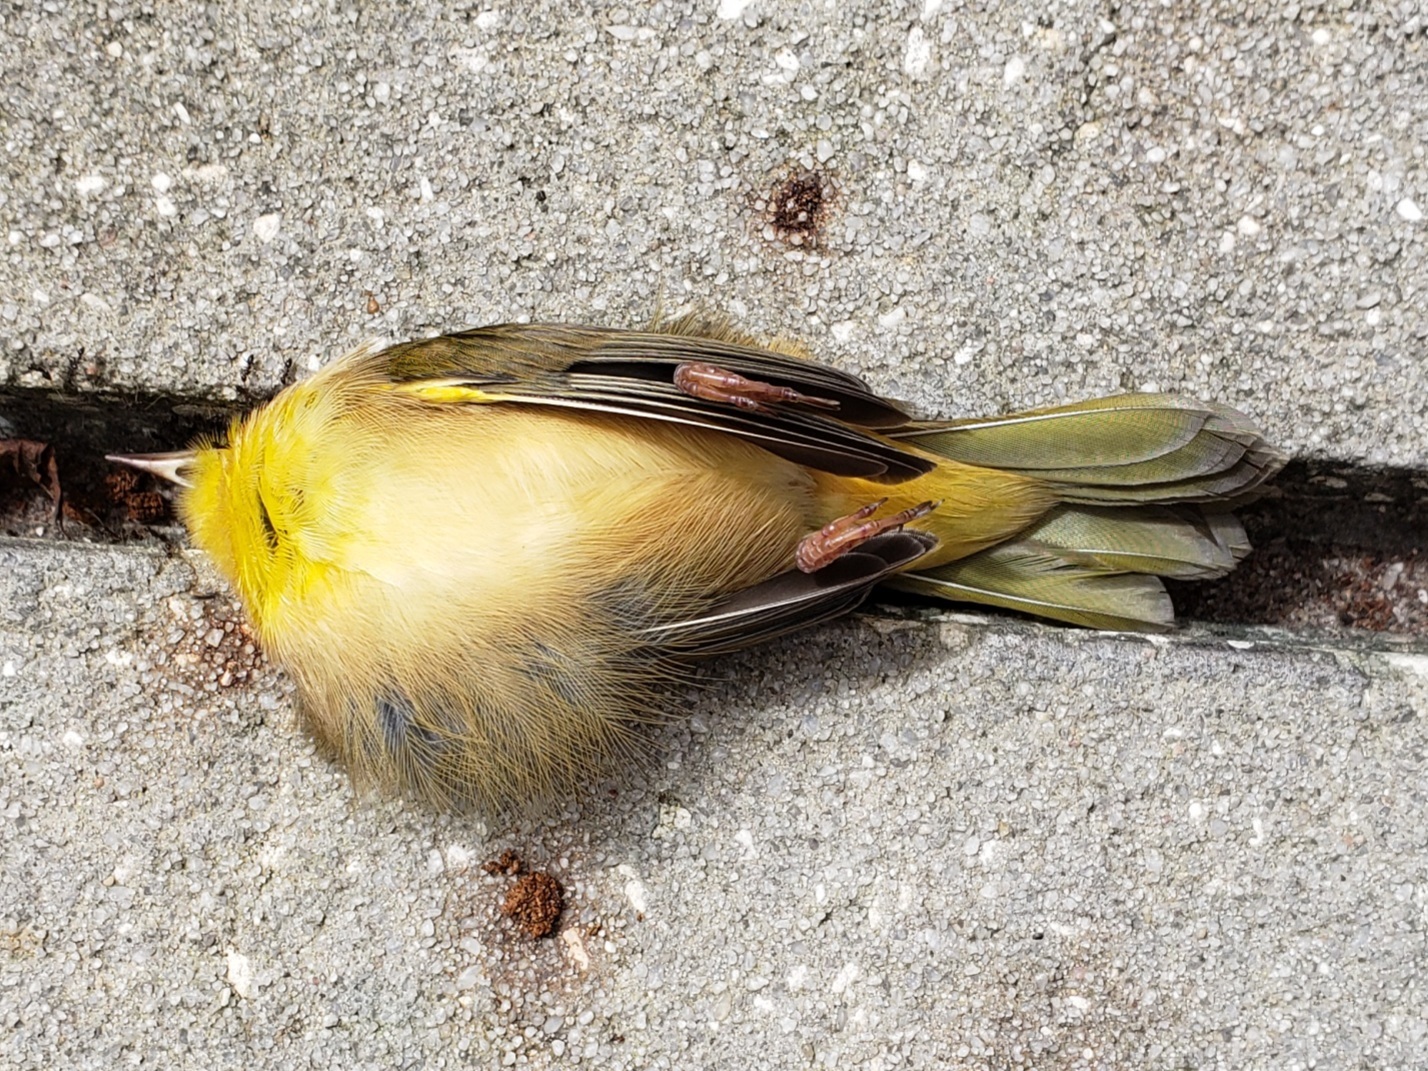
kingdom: Animalia
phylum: Chordata
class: Aves
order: Passeriformes
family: Parulidae
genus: Geothlypis
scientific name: Geothlypis trichas
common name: Common yellowthroat
